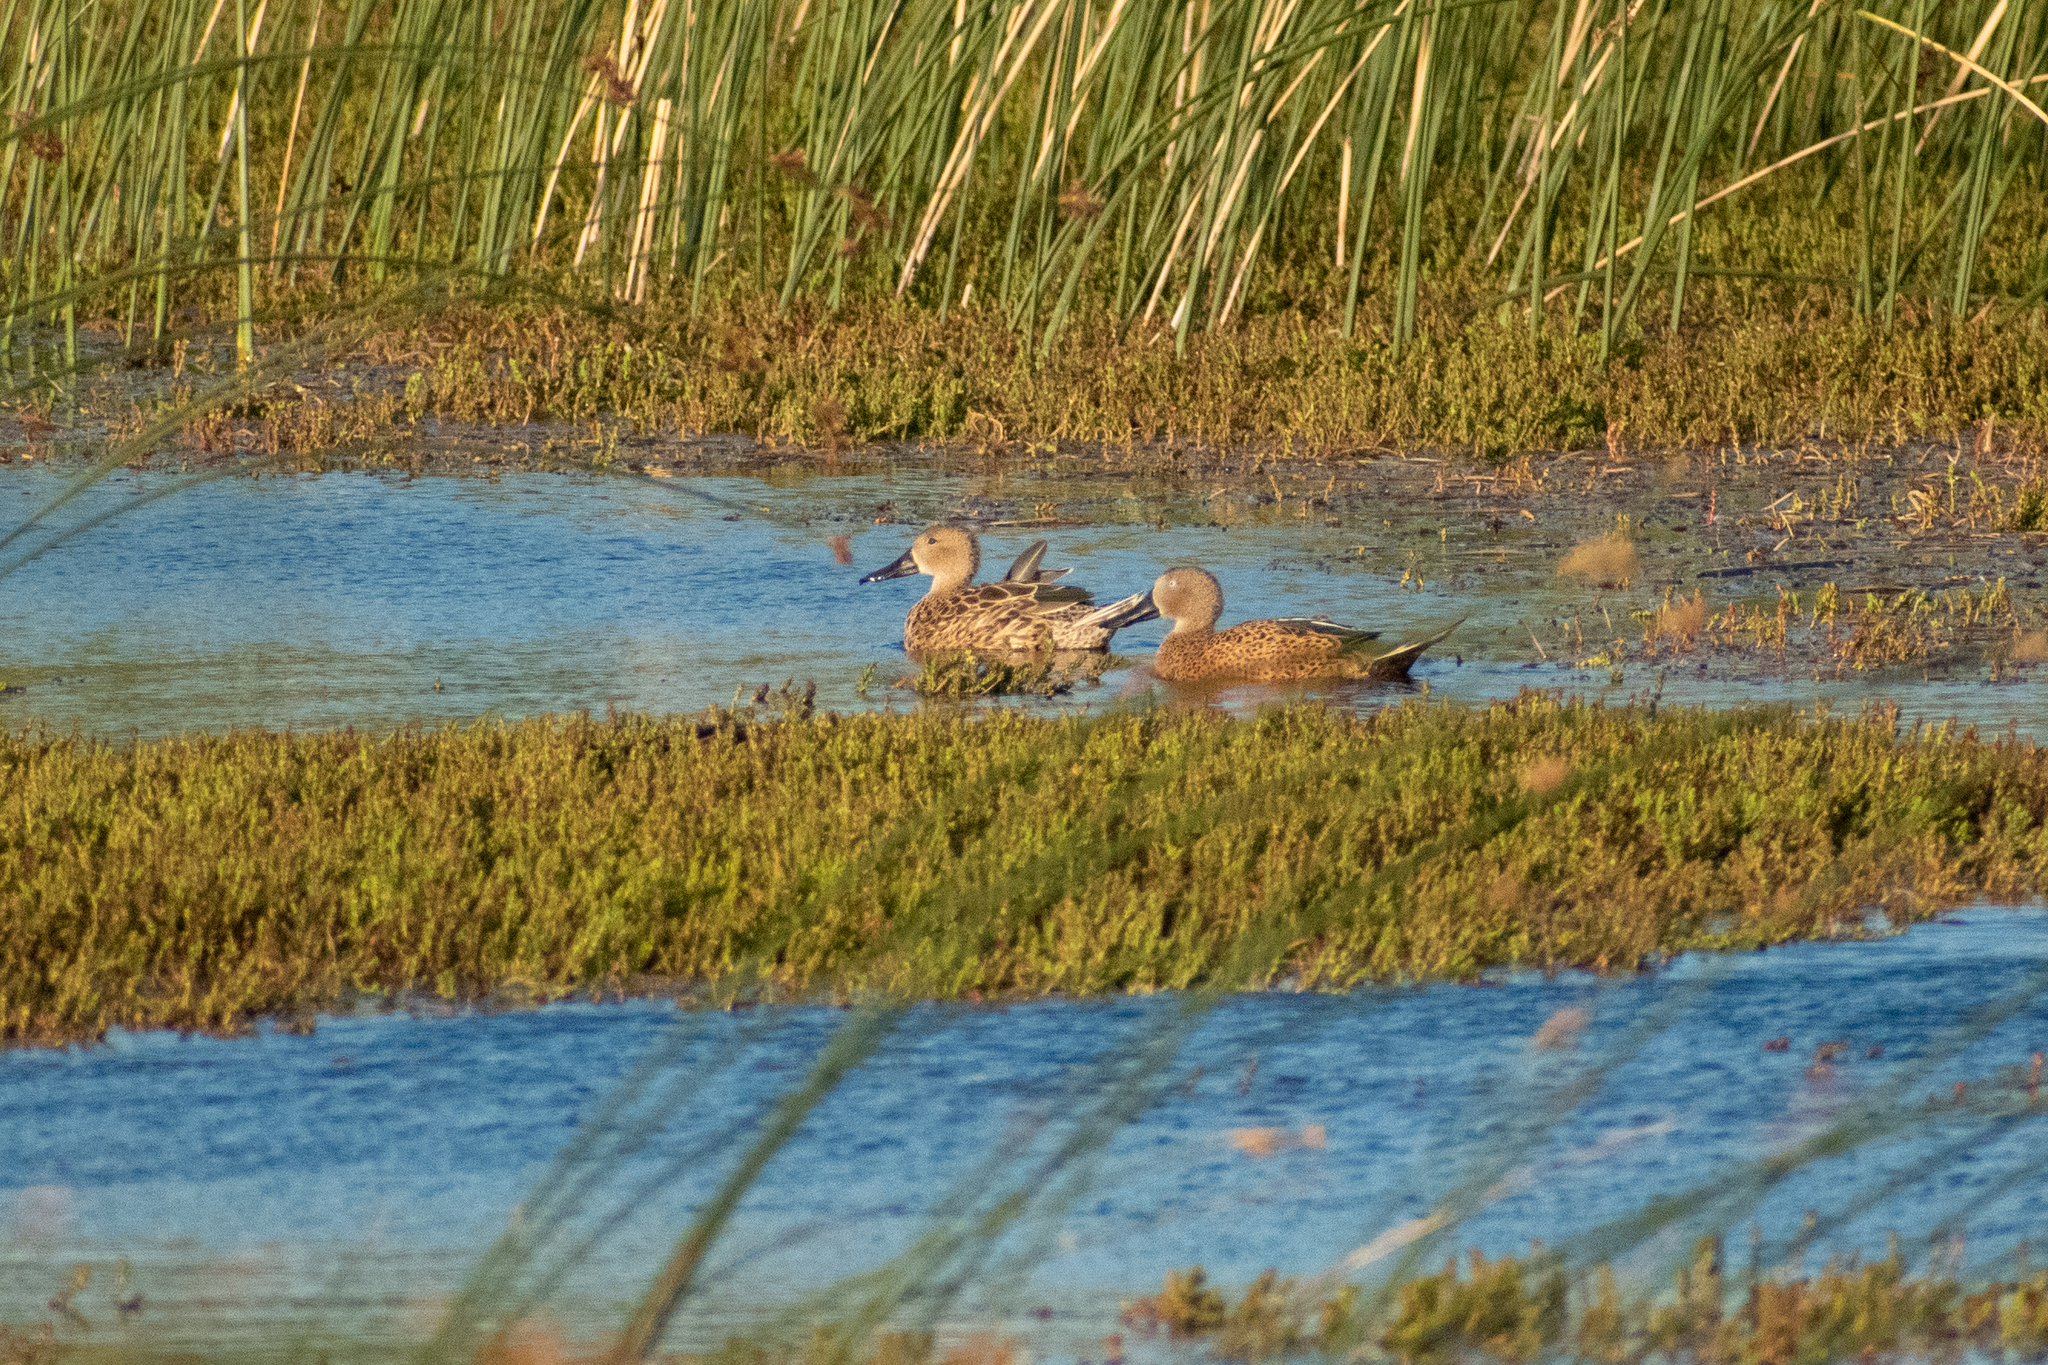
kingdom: Animalia
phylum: Chordata
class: Aves
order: Anseriformes
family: Anatidae
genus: Spatula
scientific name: Spatula platalea
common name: Red shoveler
